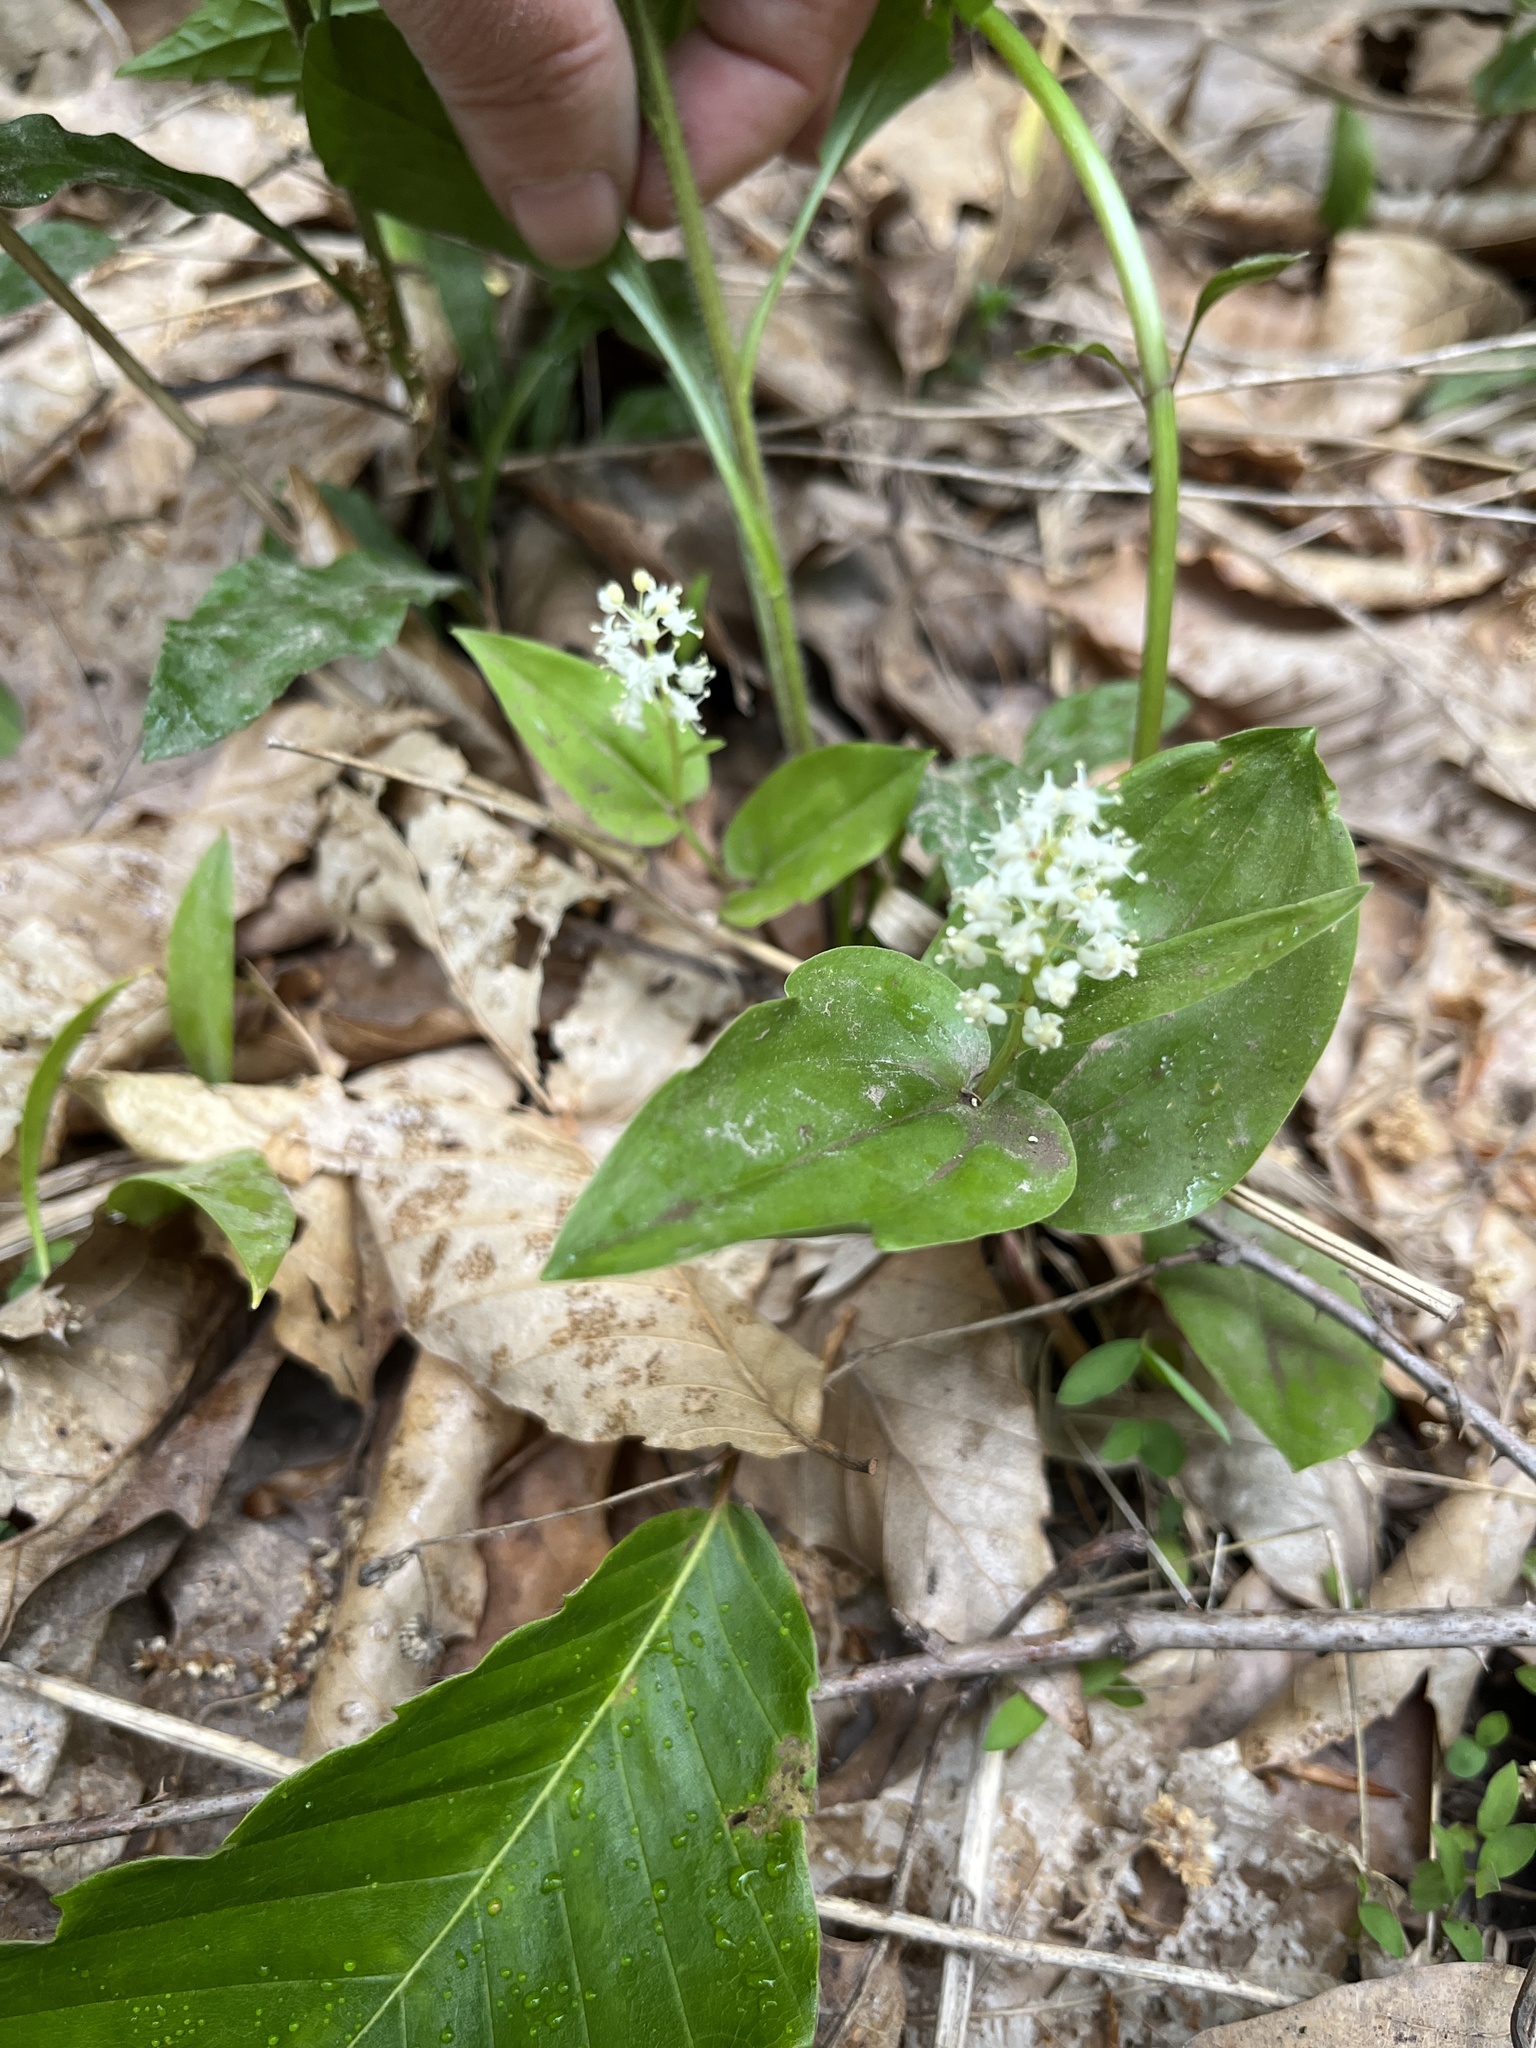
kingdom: Plantae
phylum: Tracheophyta
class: Liliopsida
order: Asparagales
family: Asparagaceae
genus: Maianthemum
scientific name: Maianthemum canadense
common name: False lily-of-the-valley
